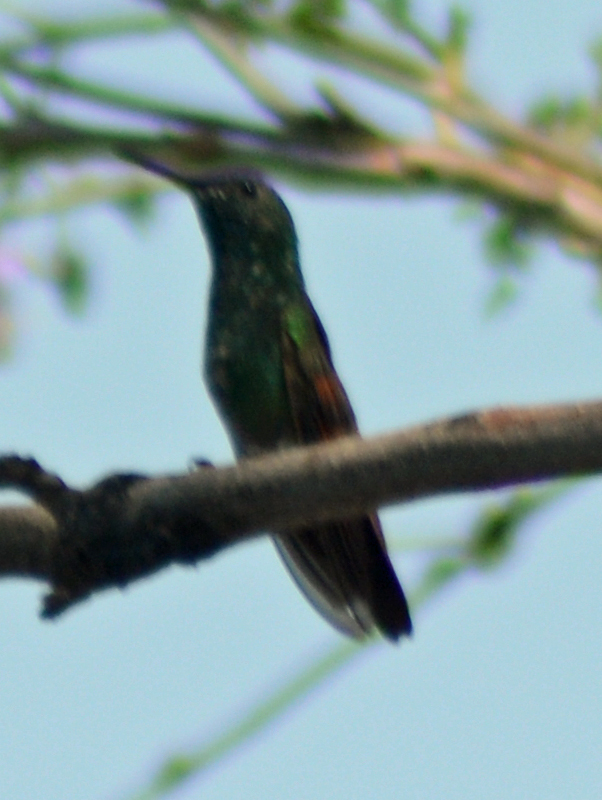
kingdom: Animalia
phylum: Chordata
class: Aves
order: Apodiformes
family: Trochilidae
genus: Saucerottia
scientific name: Saucerottia beryllina
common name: Berylline hummingbird
